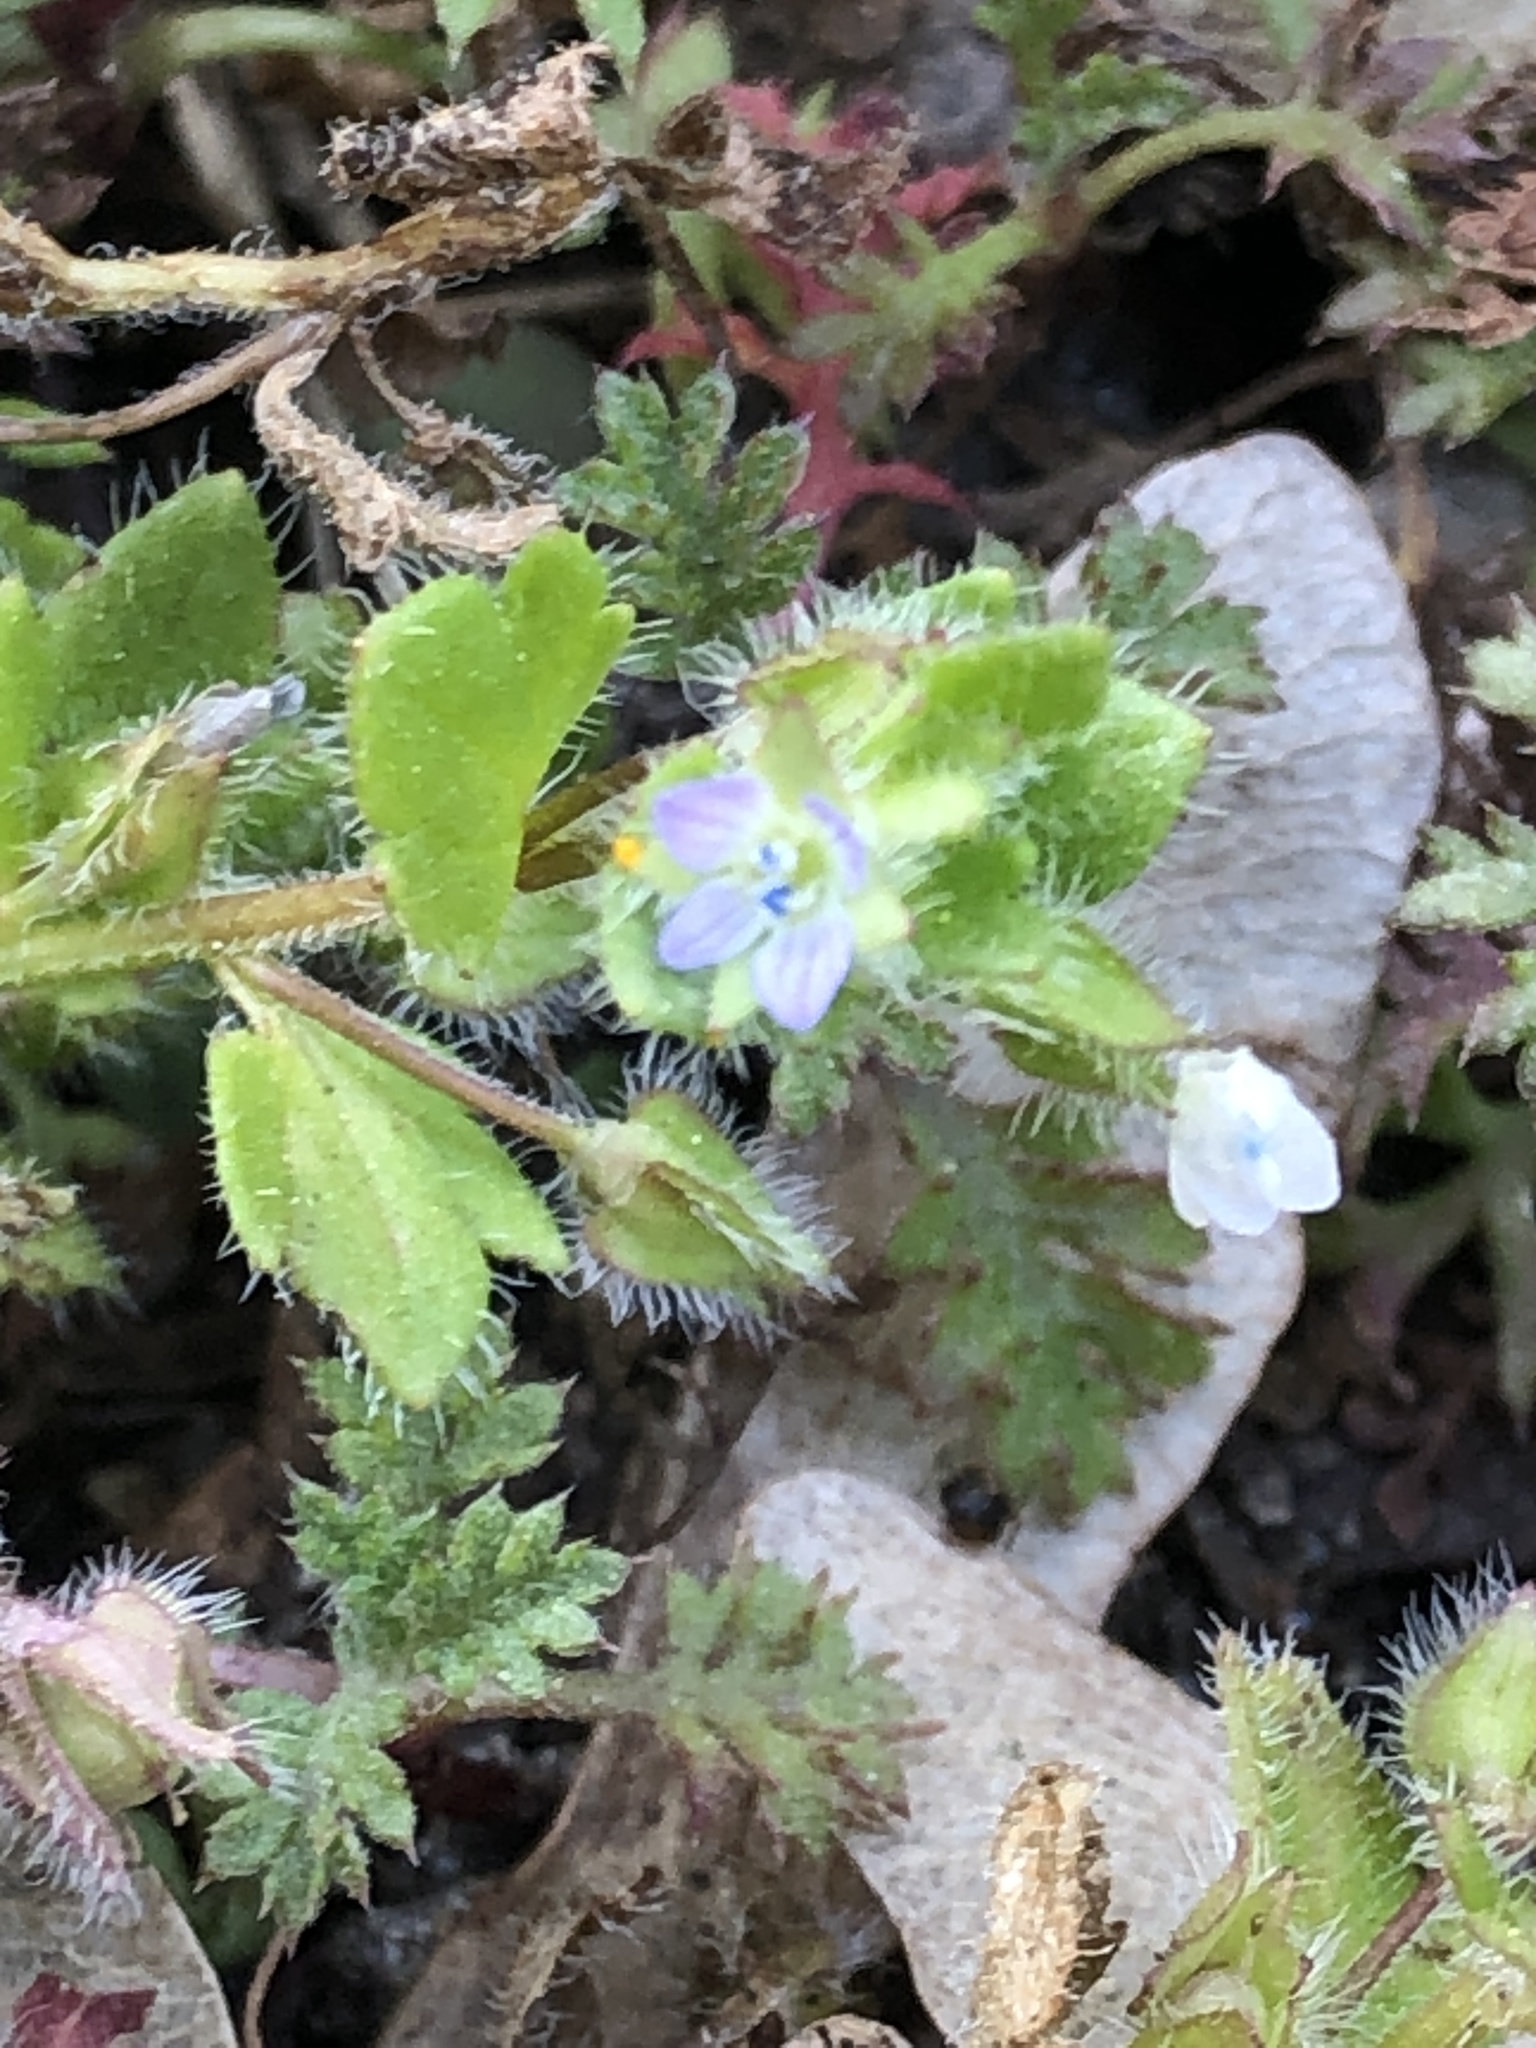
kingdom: Plantae
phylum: Tracheophyta
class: Magnoliopsida
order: Lamiales
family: Plantaginaceae
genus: Veronica
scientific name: Veronica hederifolia
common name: Ivy-leaved speedwell
